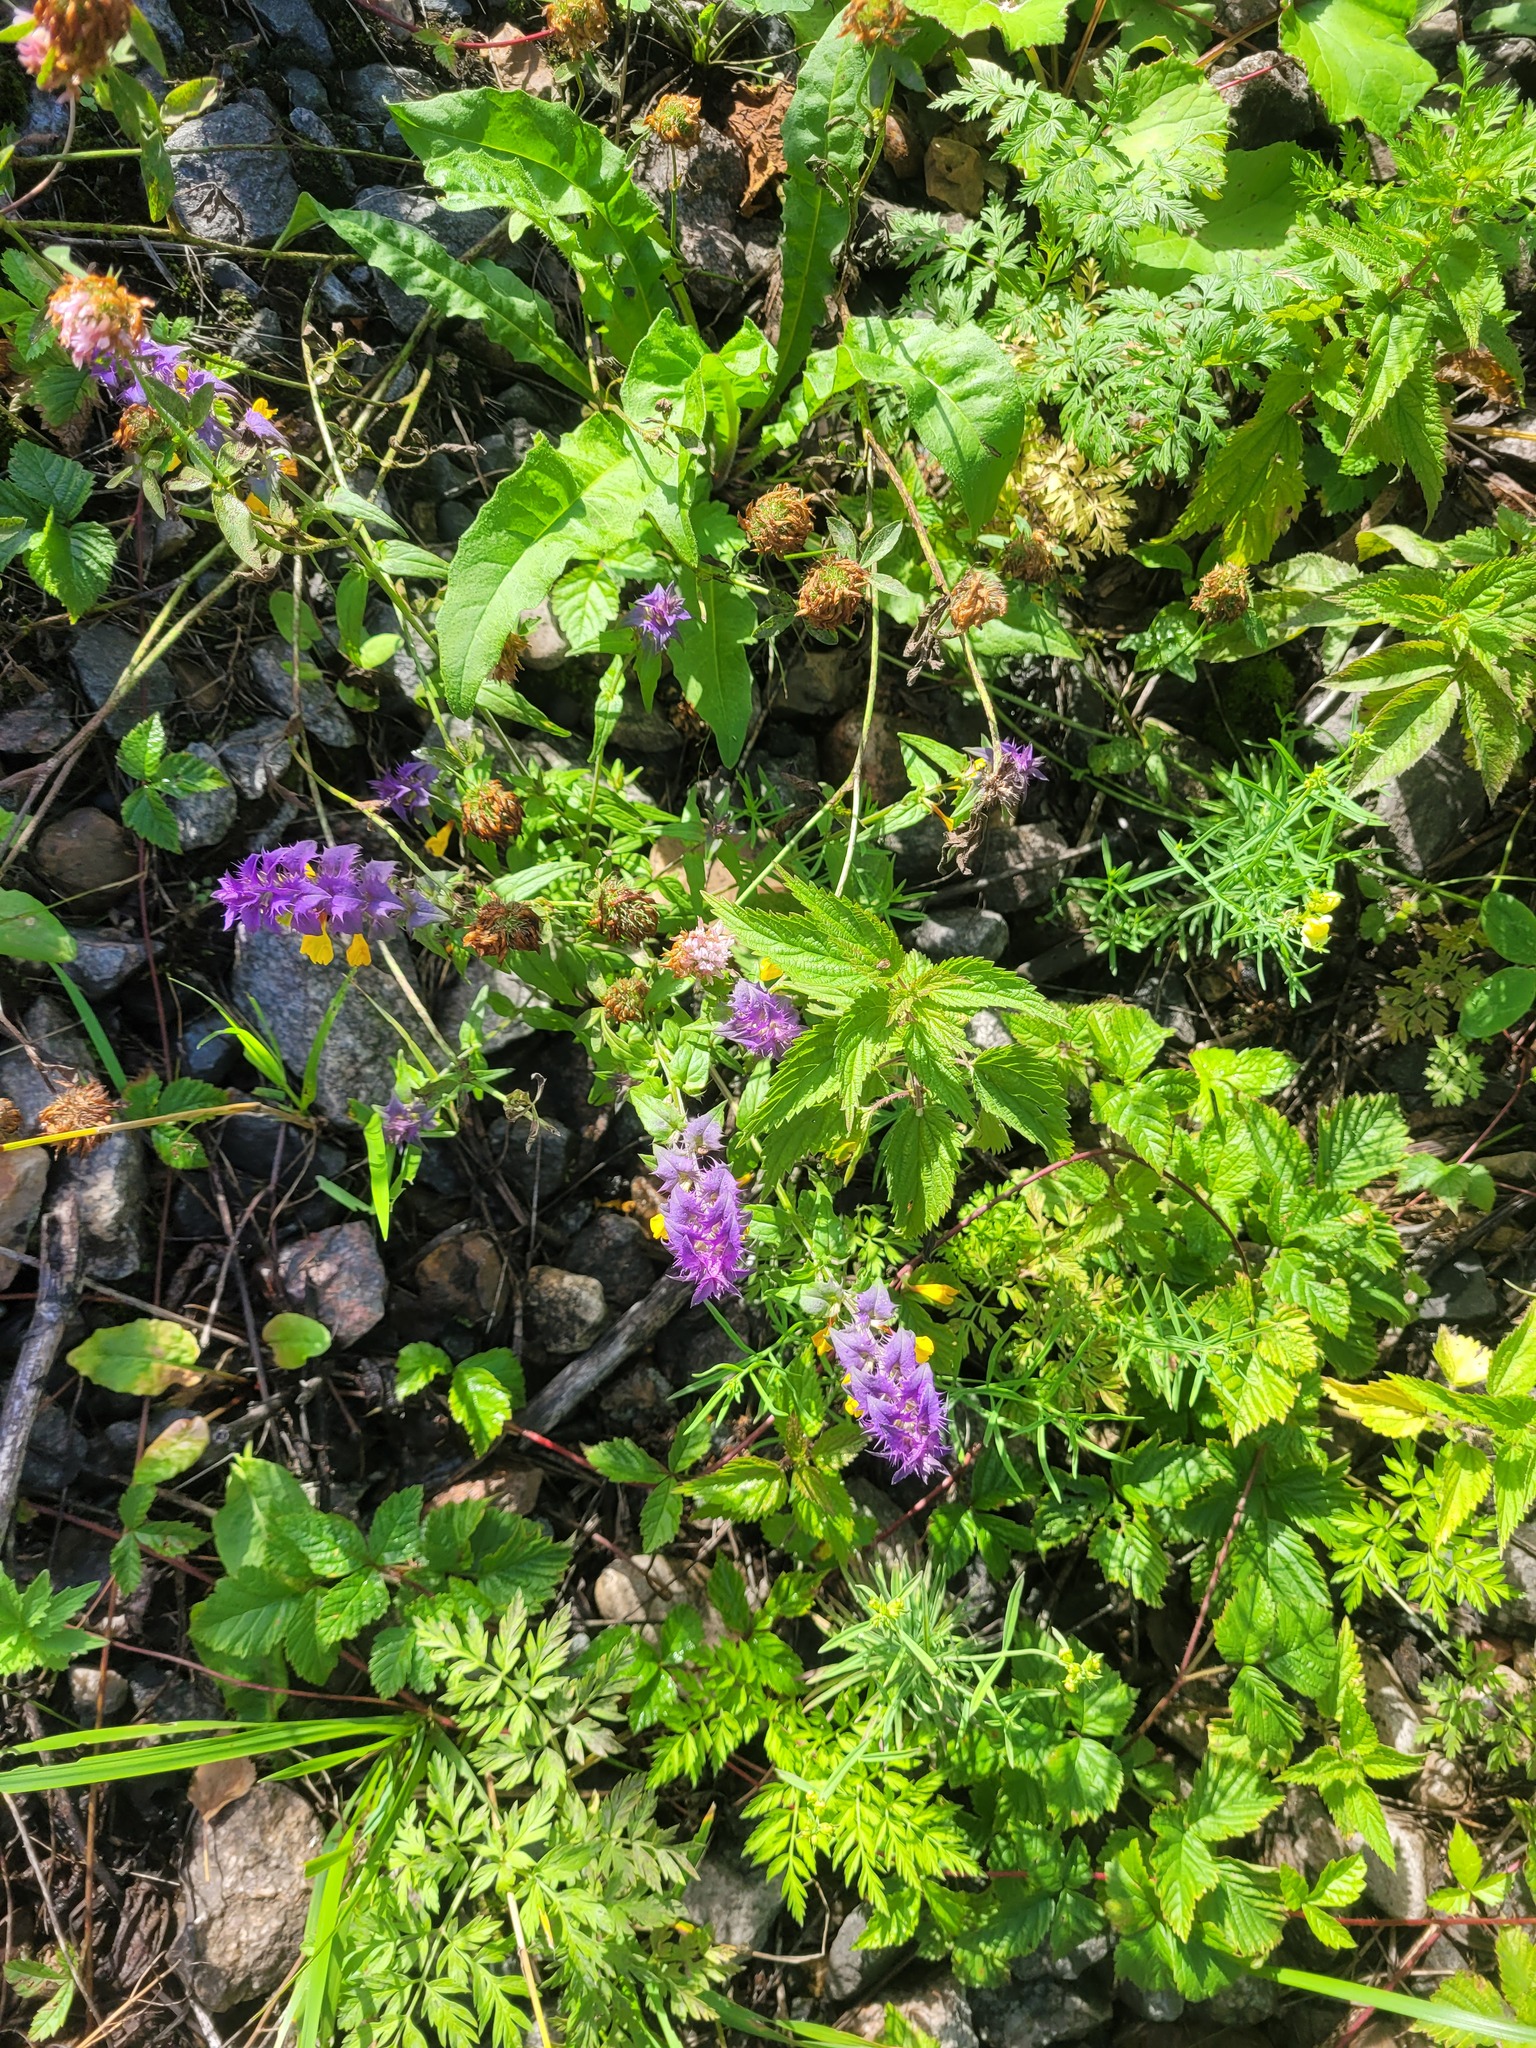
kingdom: Plantae
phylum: Tracheophyta
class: Magnoliopsida
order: Lamiales
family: Orobanchaceae
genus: Melampyrum
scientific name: Melampyrum nemorosum
